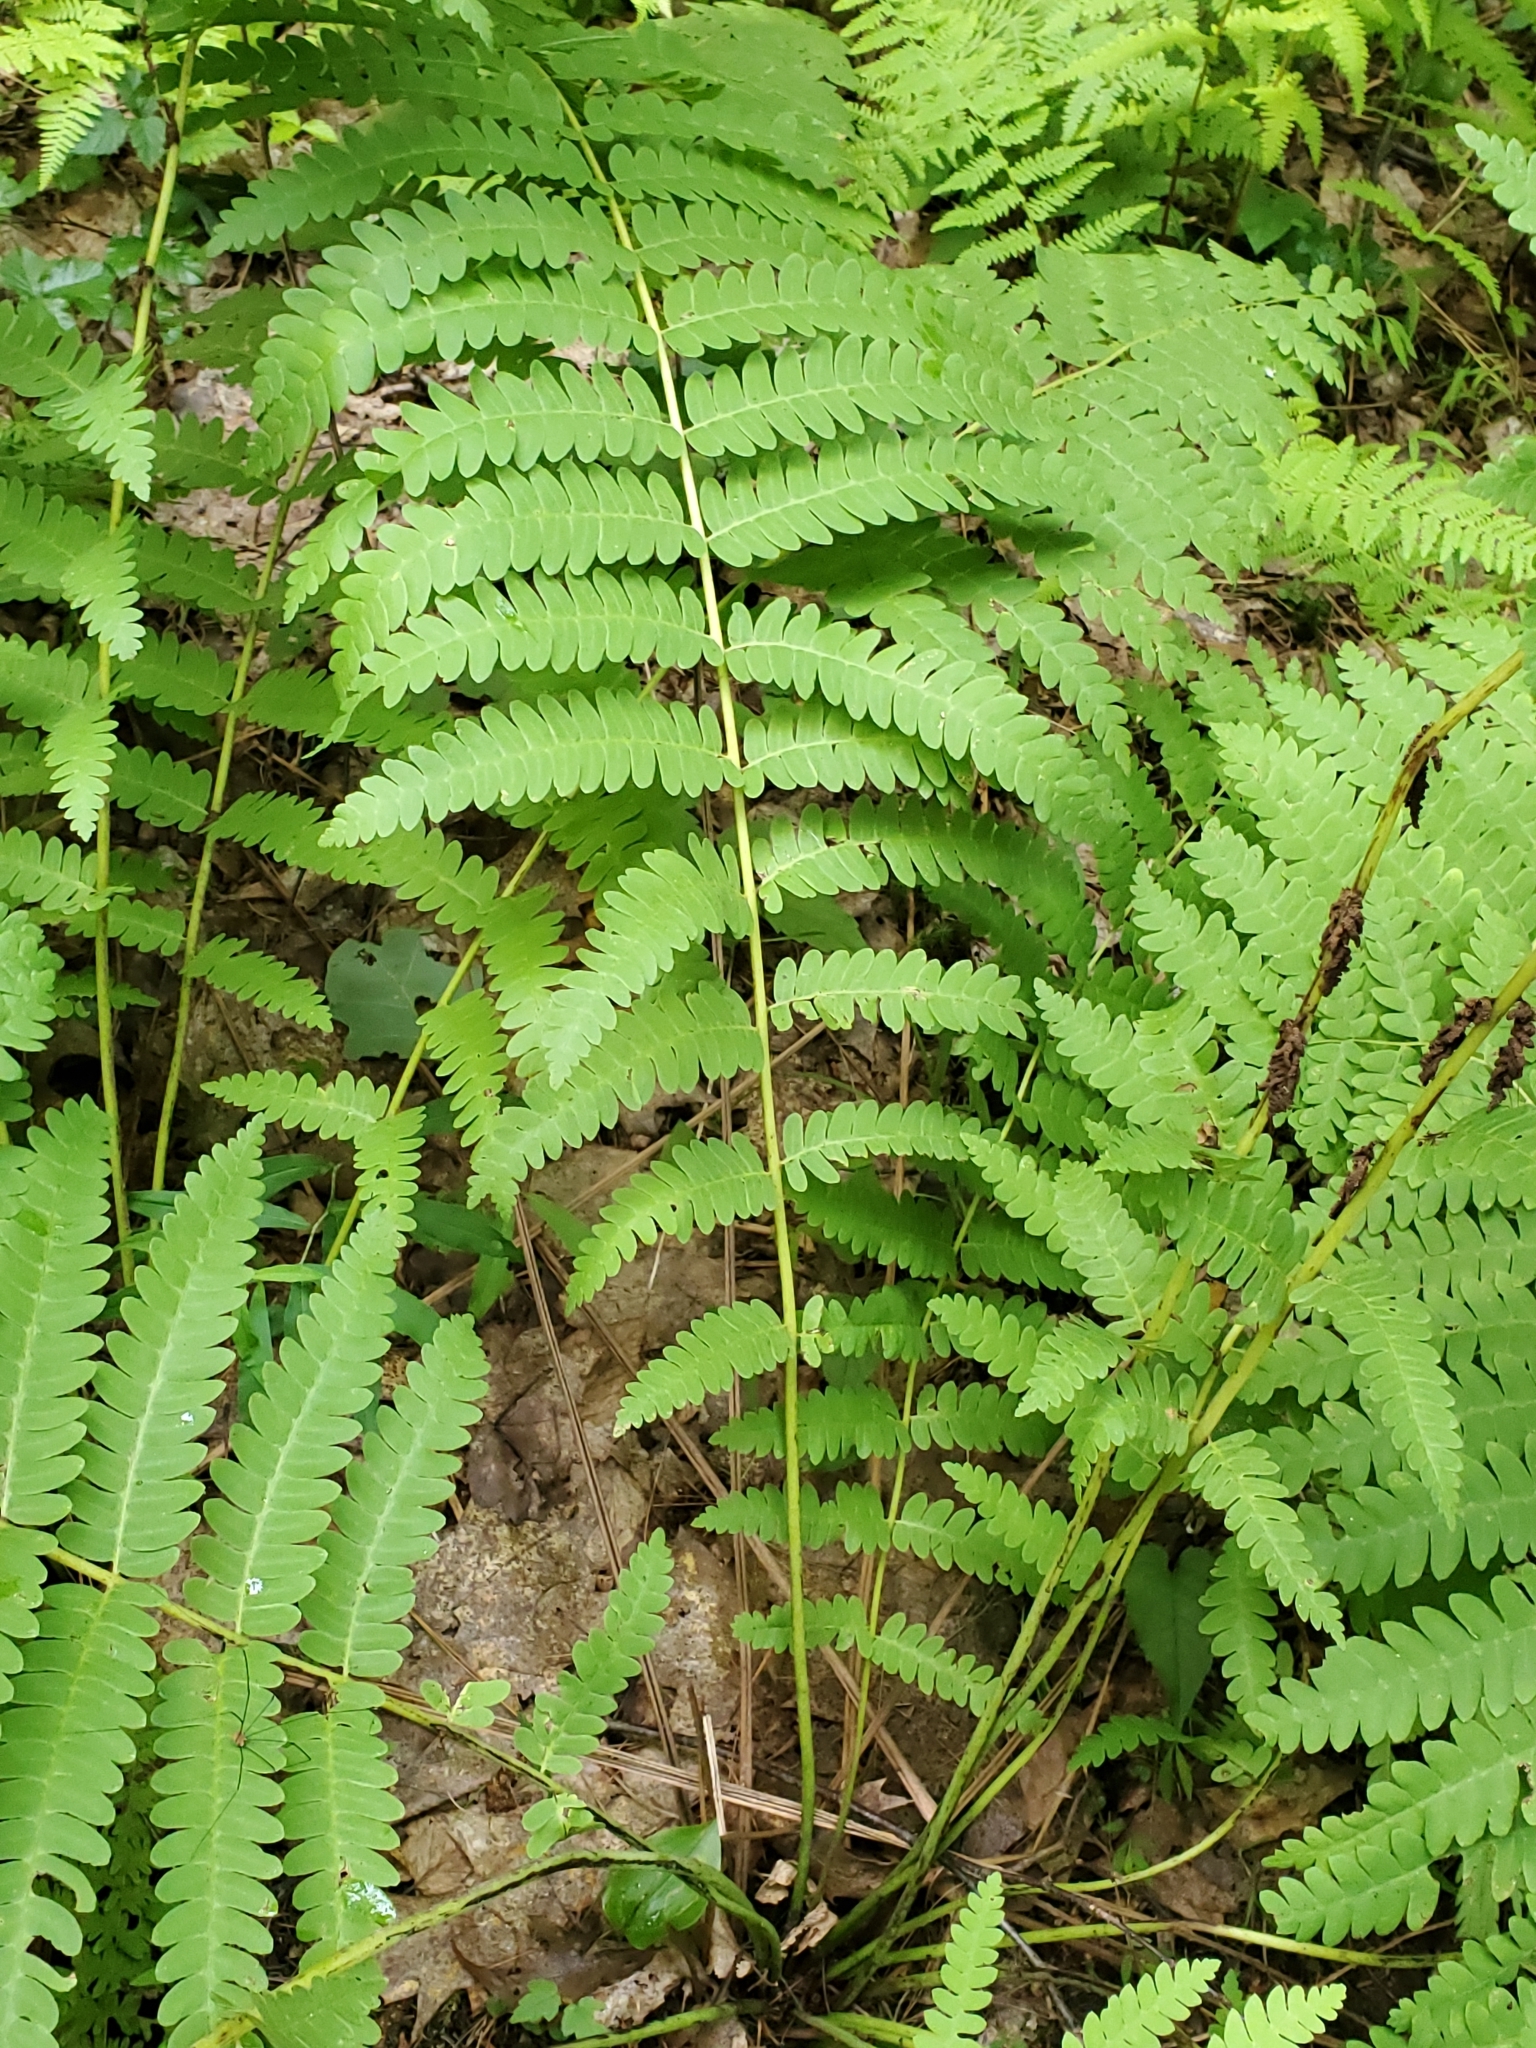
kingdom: Plantae
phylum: Tracheophyta
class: Polypodiopsida
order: Osmundales
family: Osmundaceae
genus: Claytosmunda
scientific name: Claytosmunda claytoniana
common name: Clayton's fern
